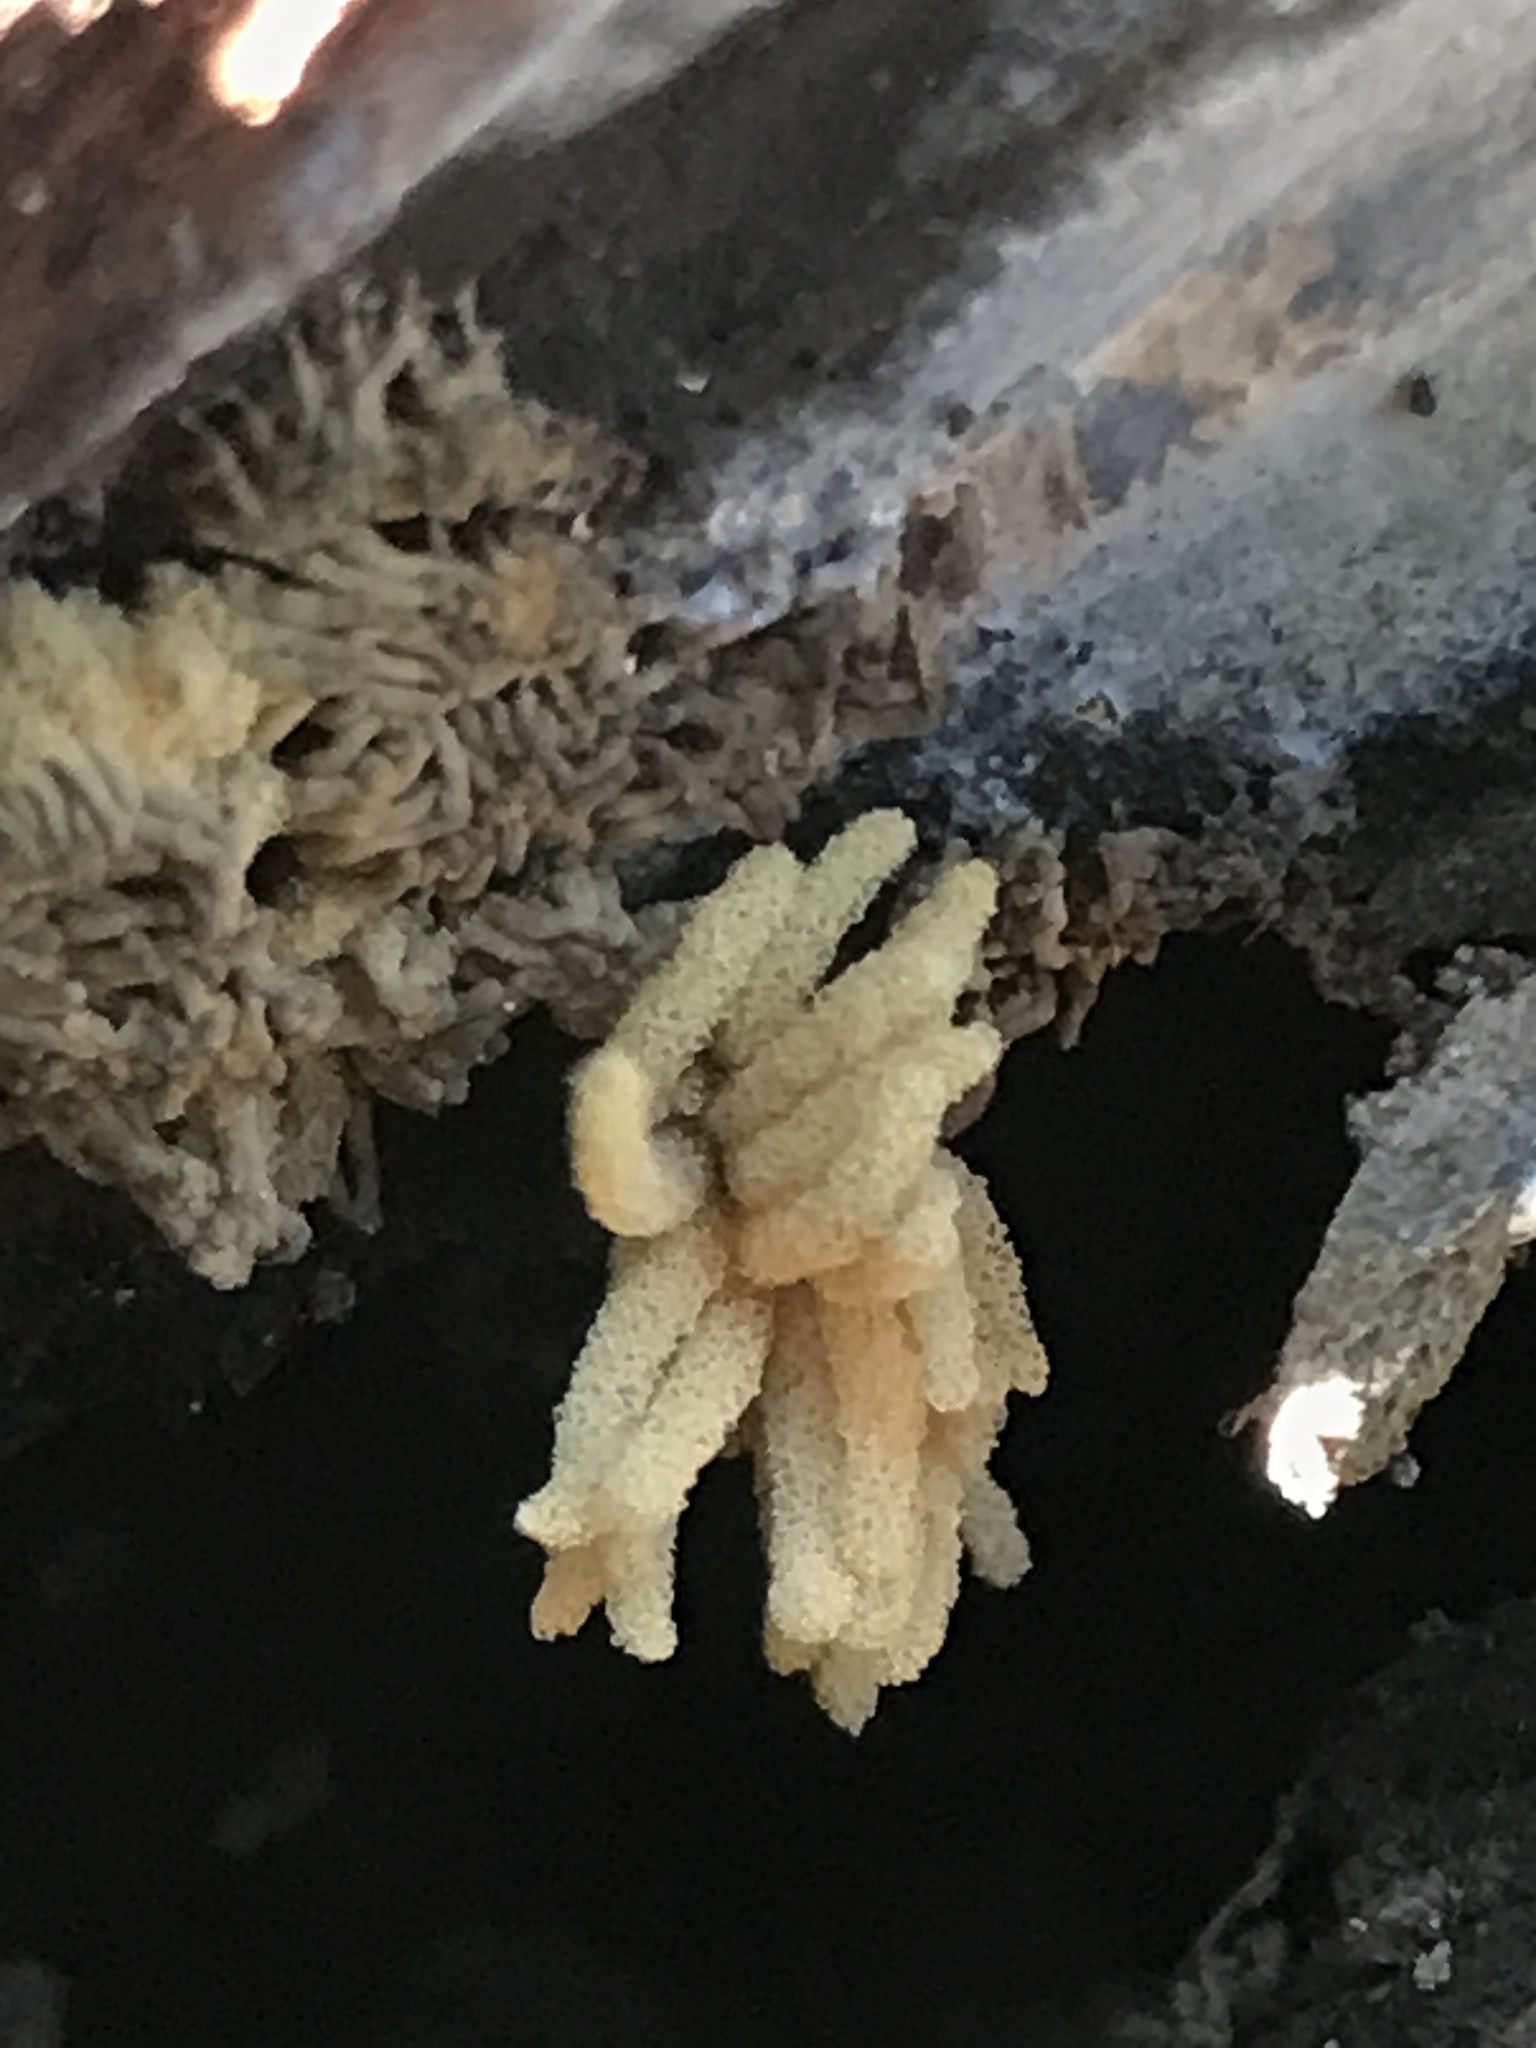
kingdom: Protozoa
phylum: Mycetozoa
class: Myxomycetes
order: Trichiales
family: Arcyriaceae
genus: Arcyria
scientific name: Arcyria obvelata
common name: Yellow carnival candy slime
